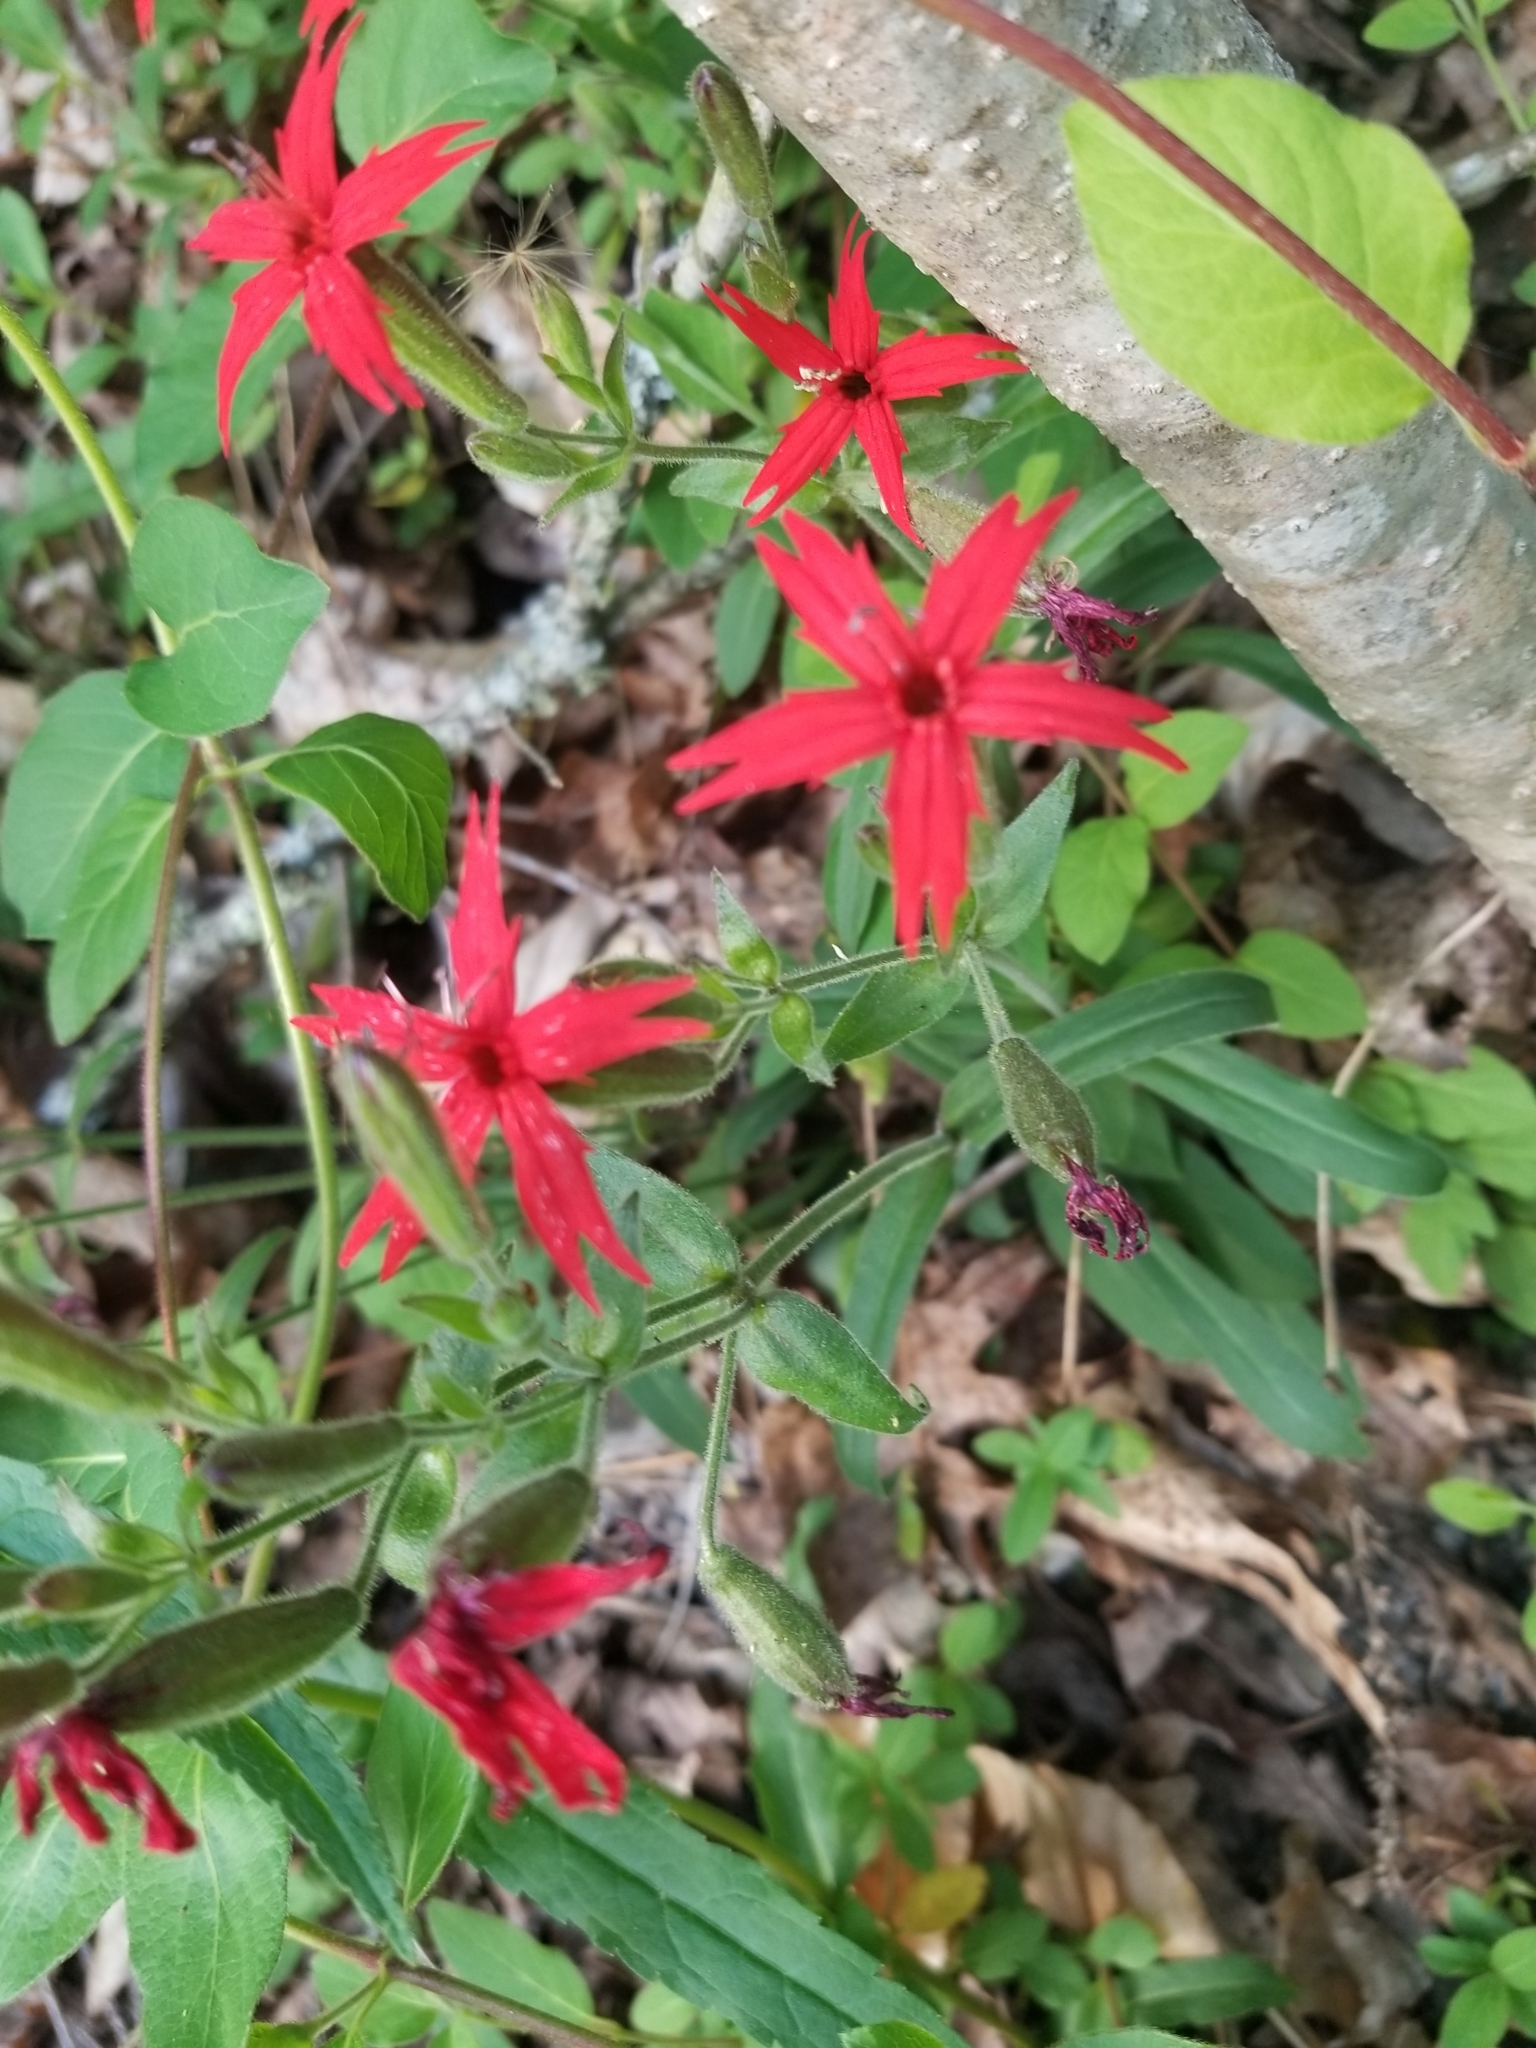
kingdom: Plantae
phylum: Tracheophyta
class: Magnoliopsida
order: Caryophyllales
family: Caryophyllaceae
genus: Silene
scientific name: Silene virginica
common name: Fire-pink
